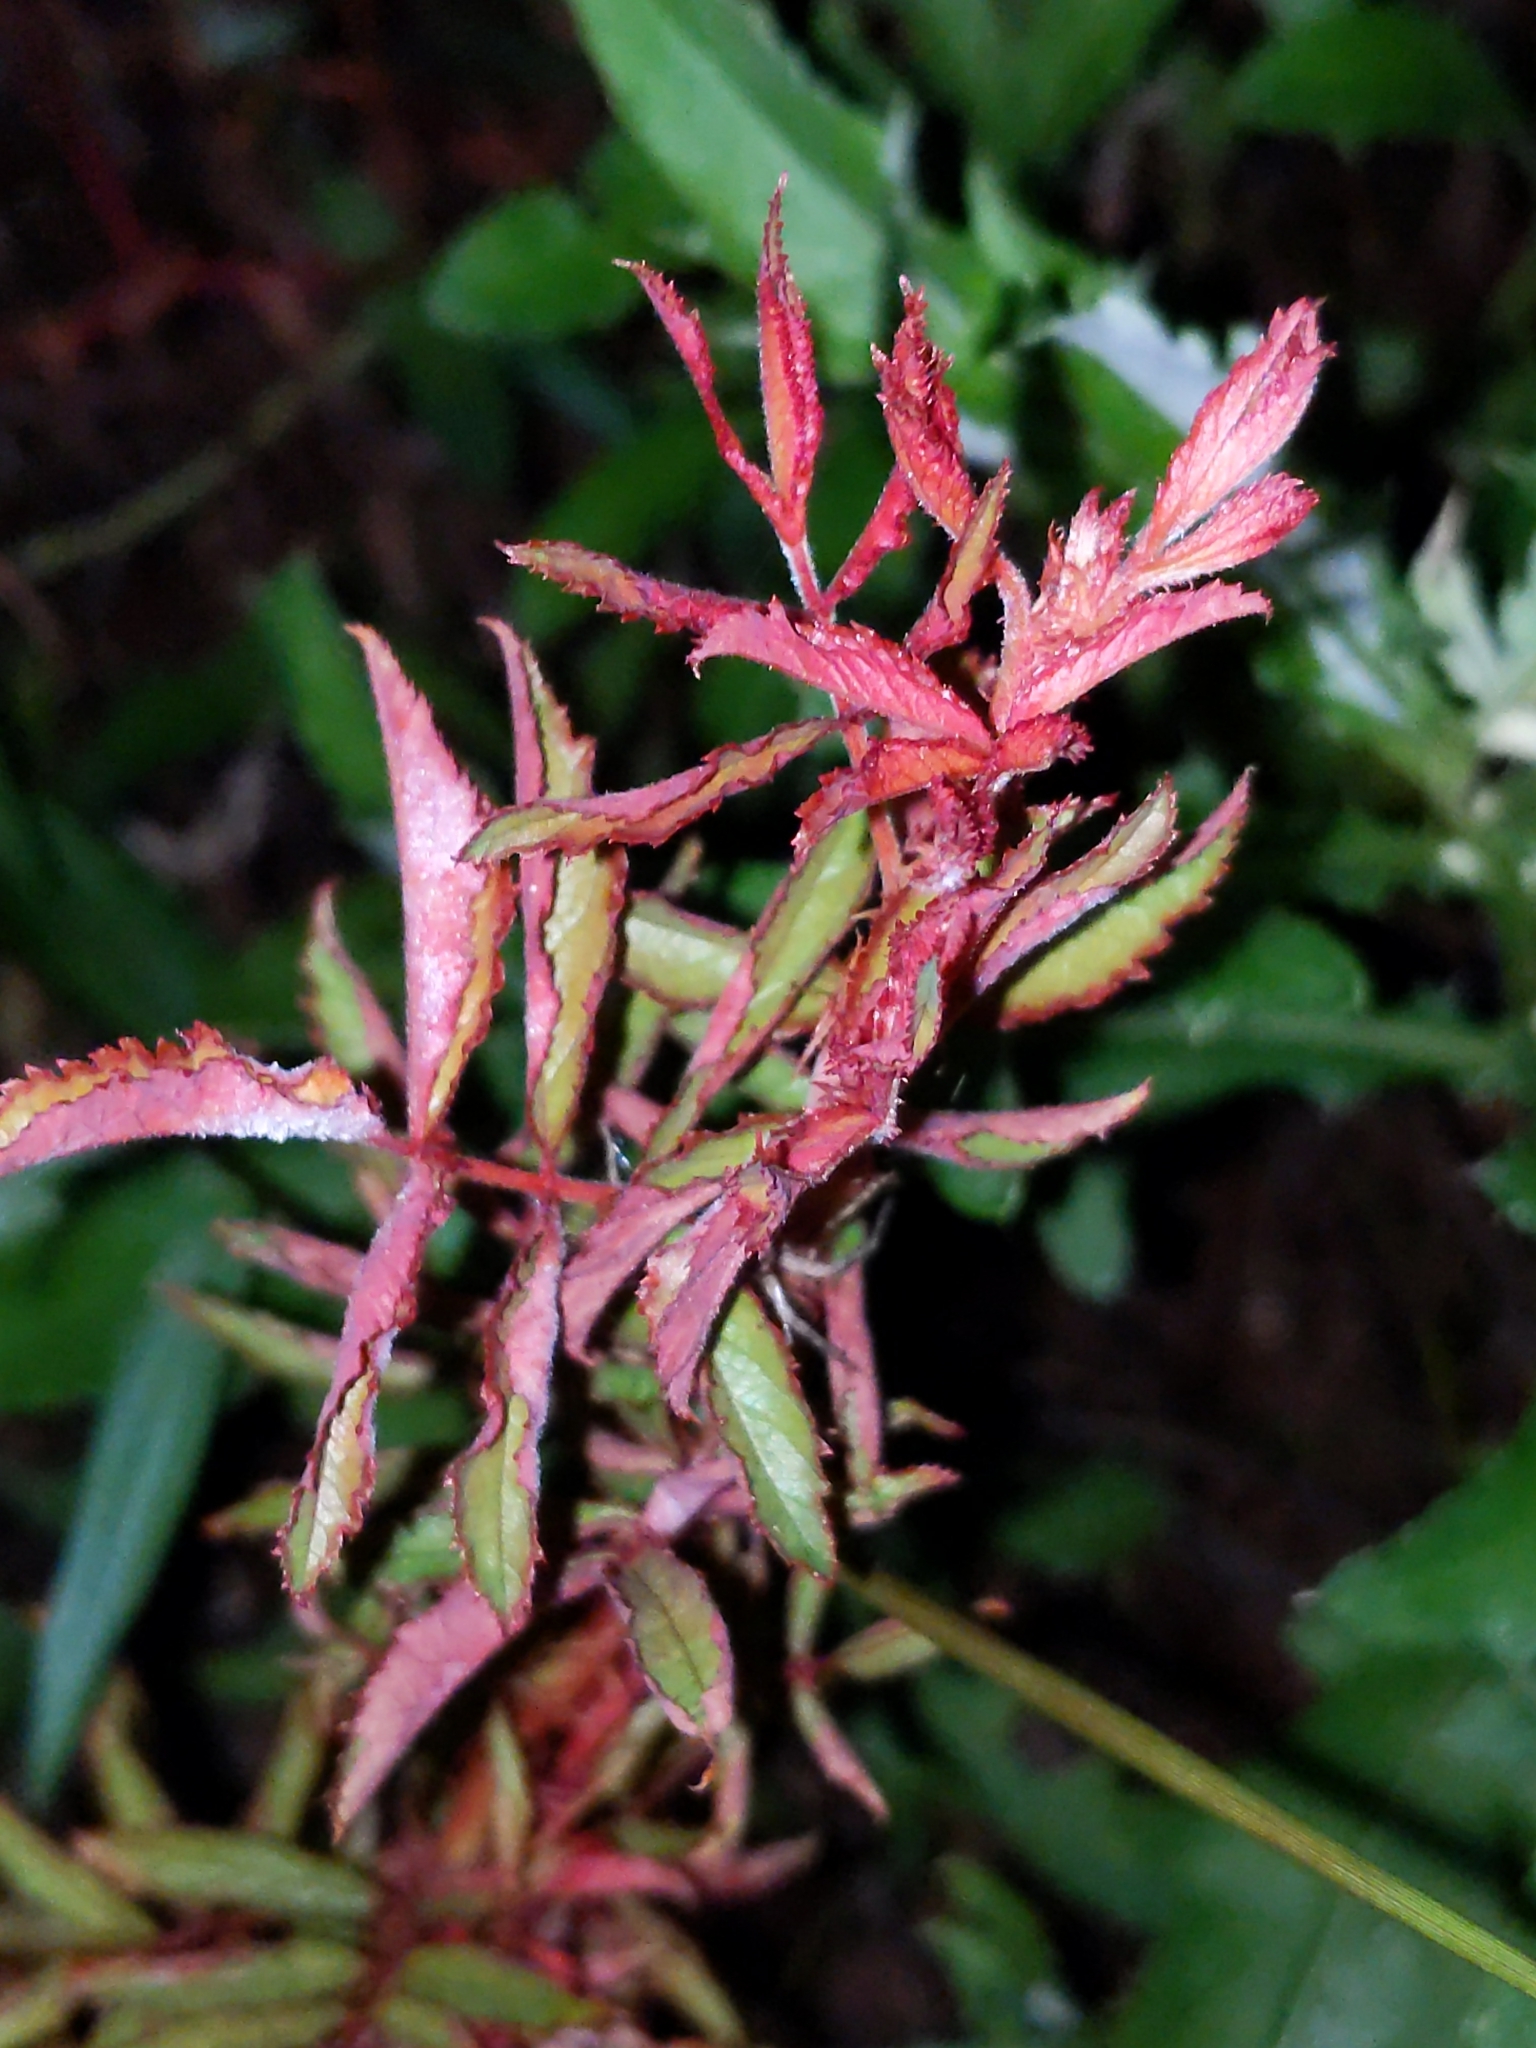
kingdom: Viruses
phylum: Negarnaviricota
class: Ellioviricetes
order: Bunyavirales
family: Fimoviridae
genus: Emaravirus
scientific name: Emaravirus rosae
